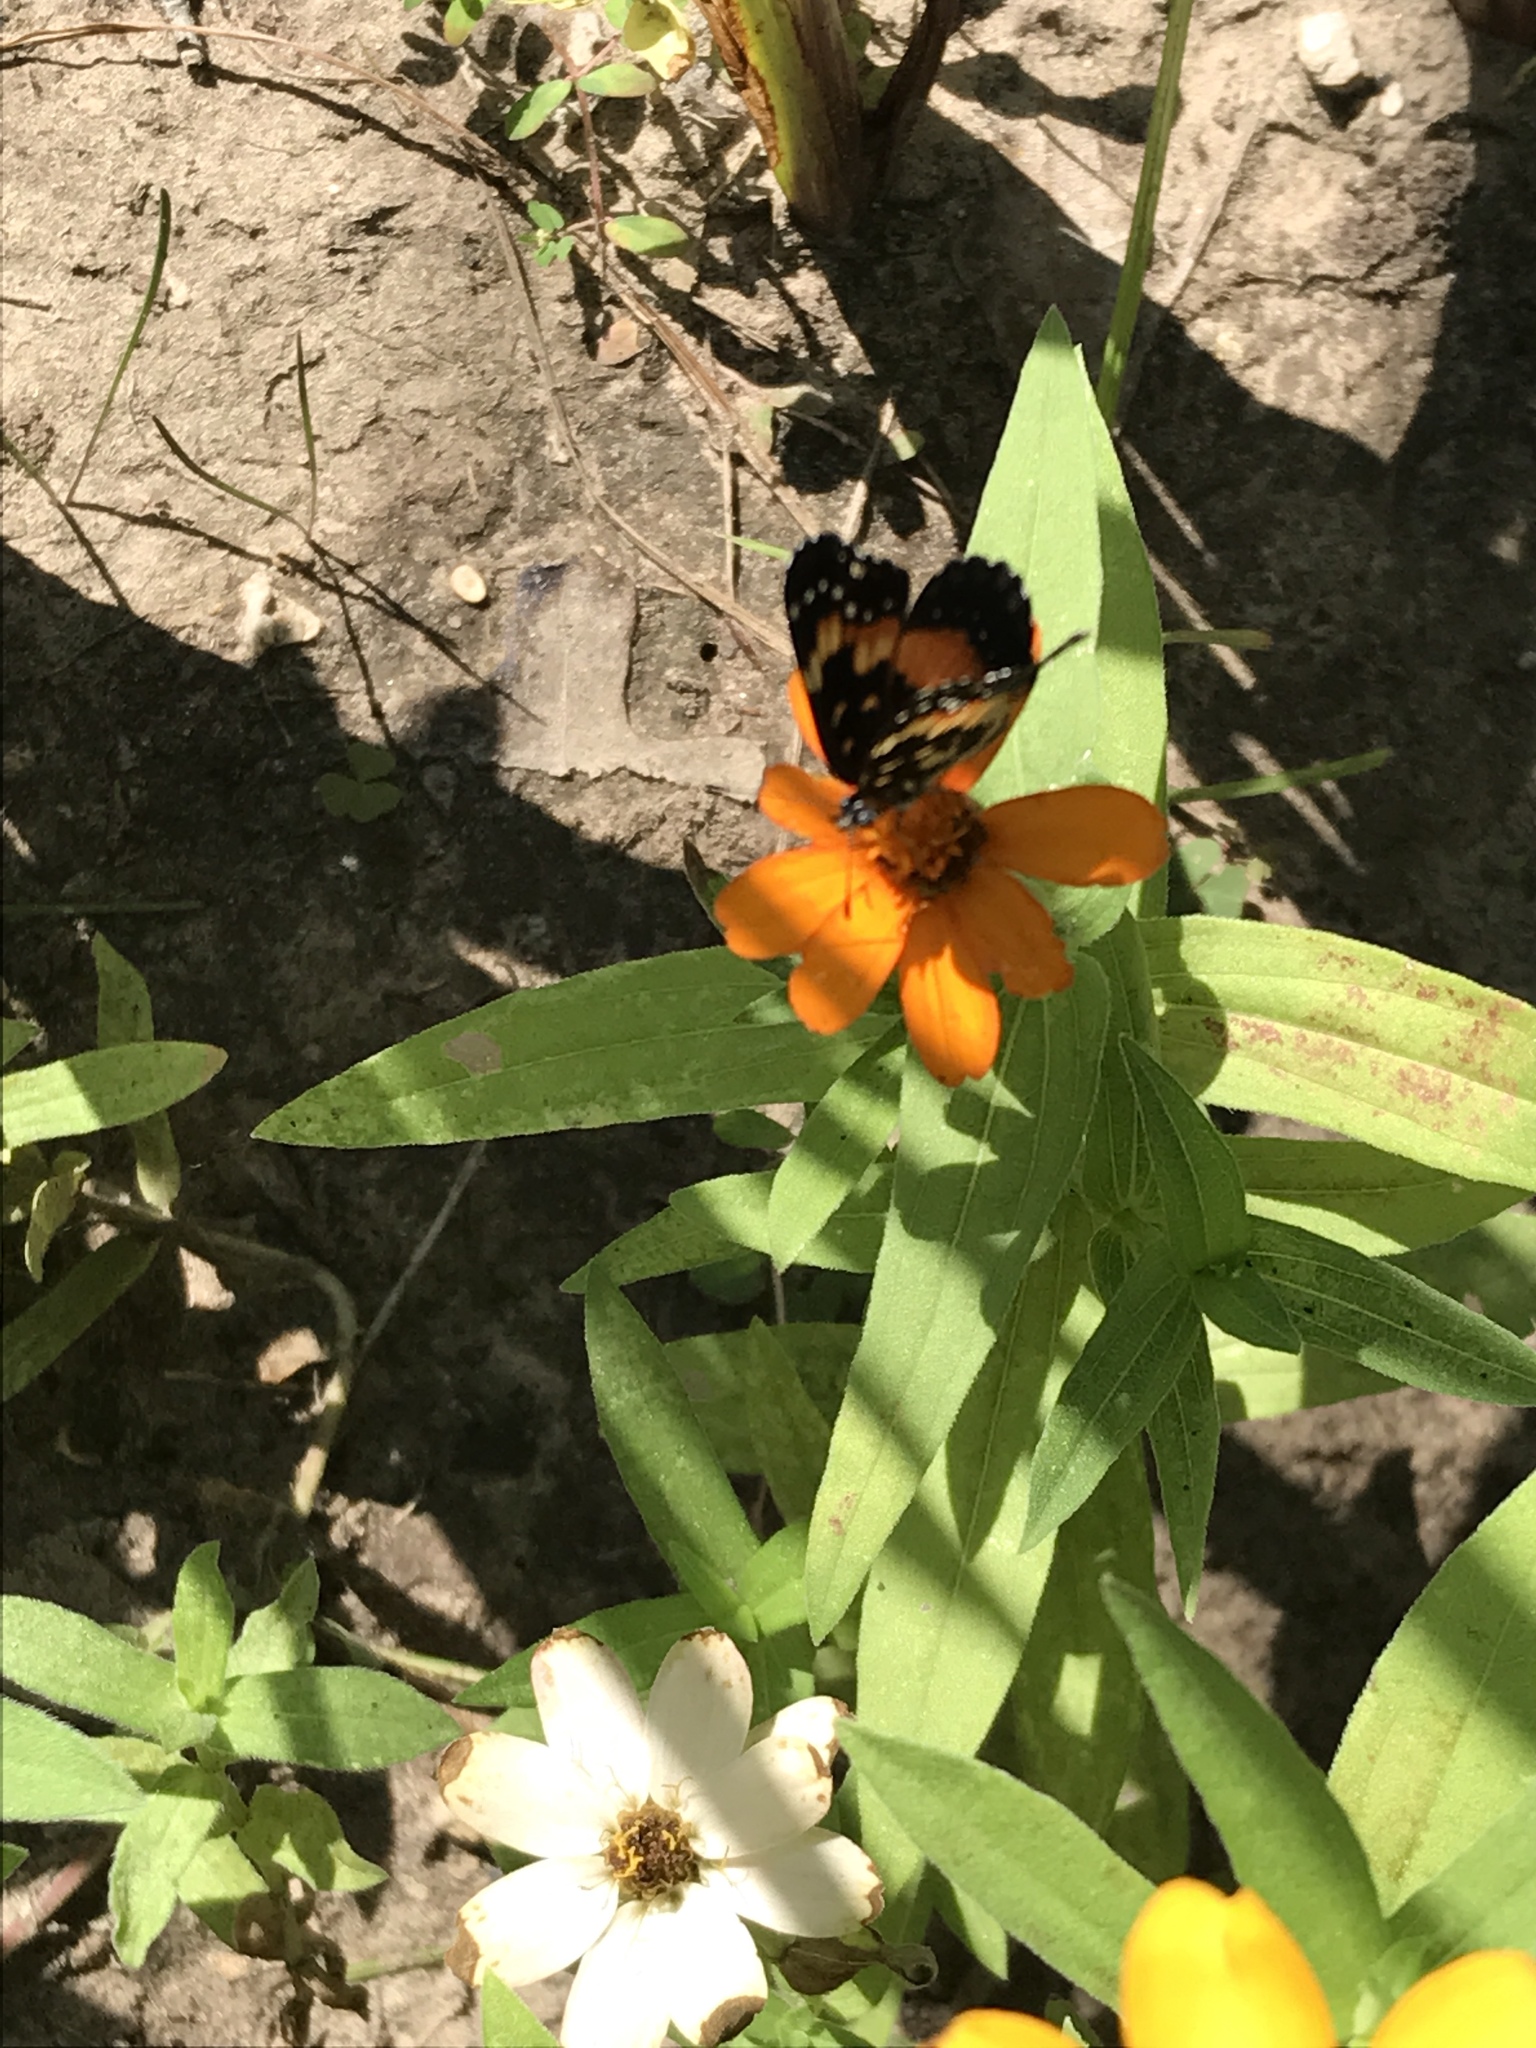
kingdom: Animalia
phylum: Arthropoda
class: Insecta
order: Lepidoptera
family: Nymphalidae
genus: Chlosyne
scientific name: Chlosyne lacinia
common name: Bordered patch
